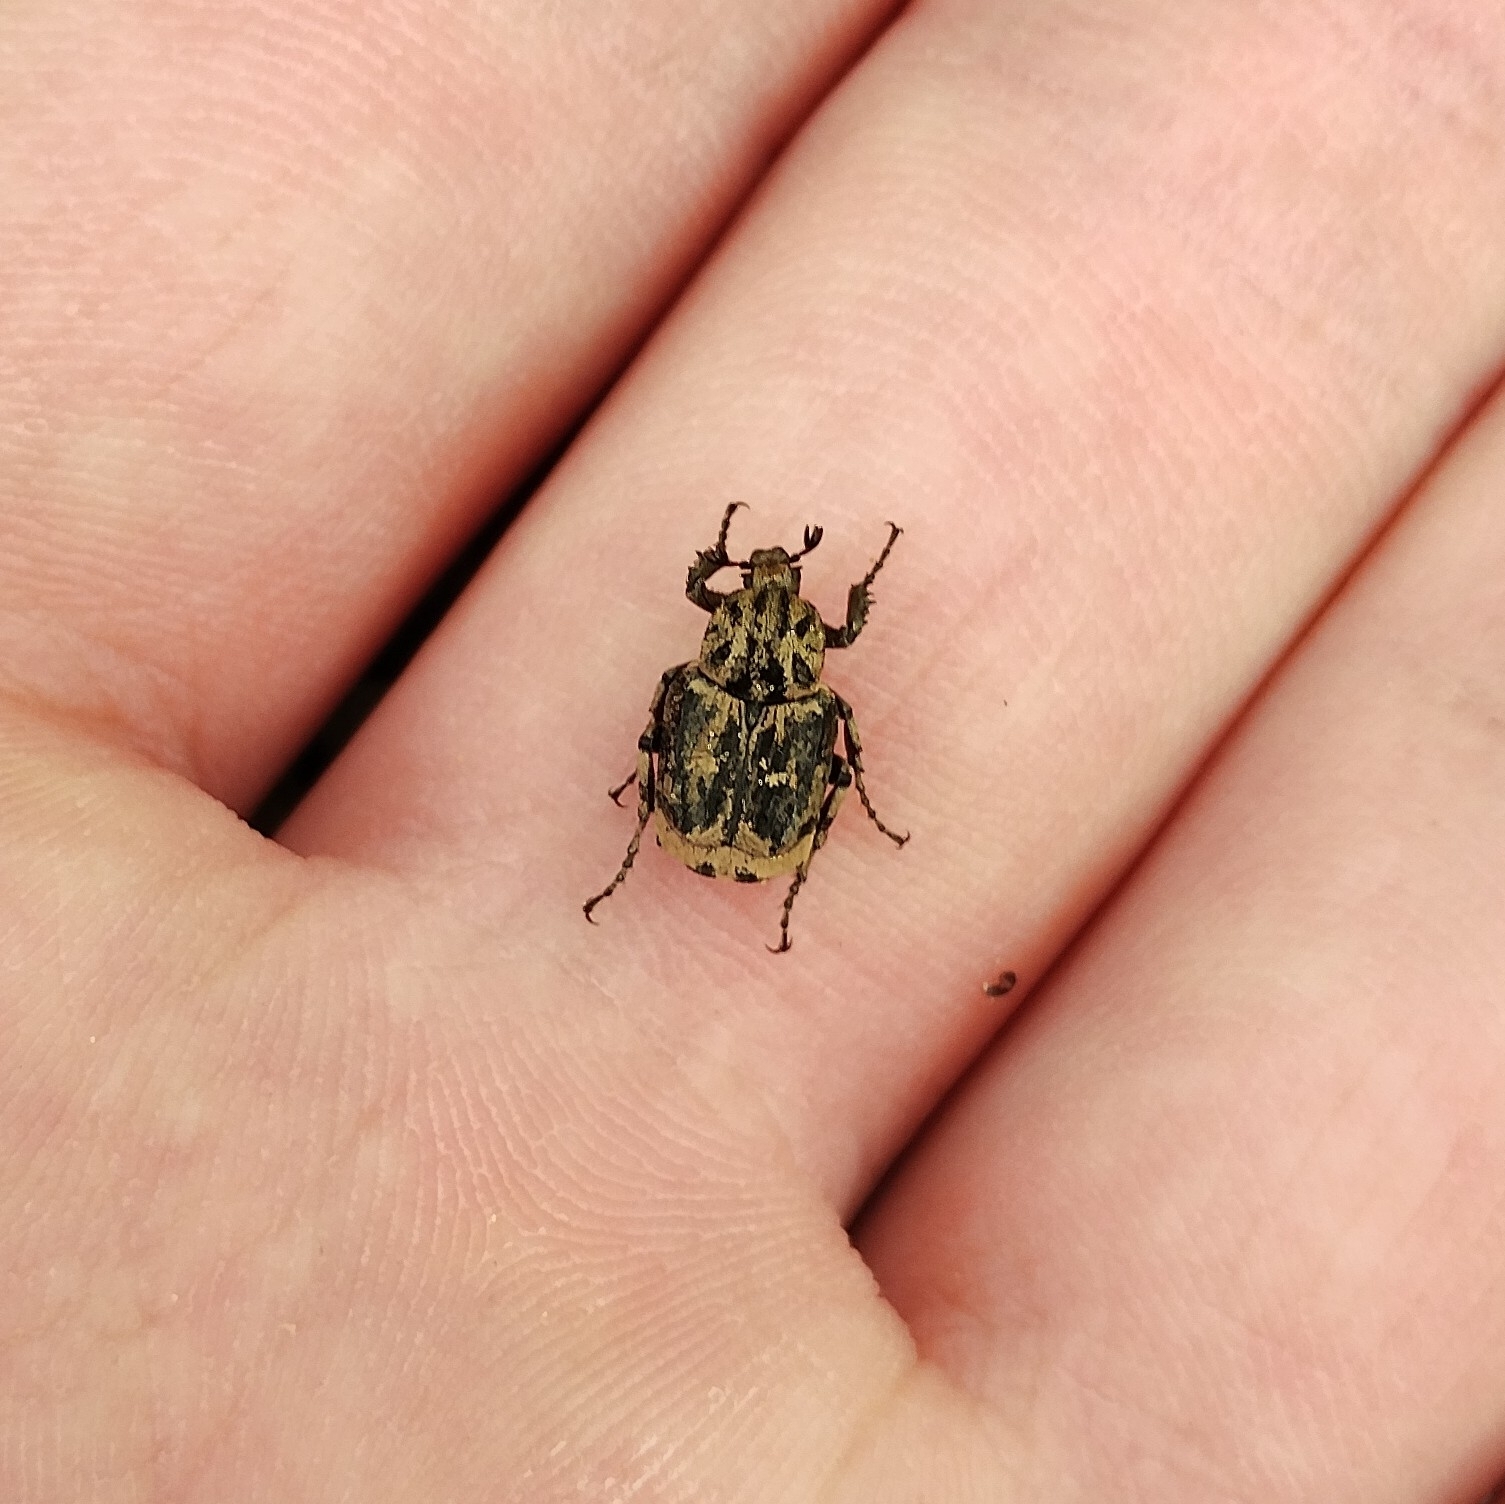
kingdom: Animalia
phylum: Arthropoda
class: Insecta
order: Coleoptera
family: Scarabaeidae
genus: Valgus
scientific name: Valgus hemipterus
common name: Bug flower chafer
